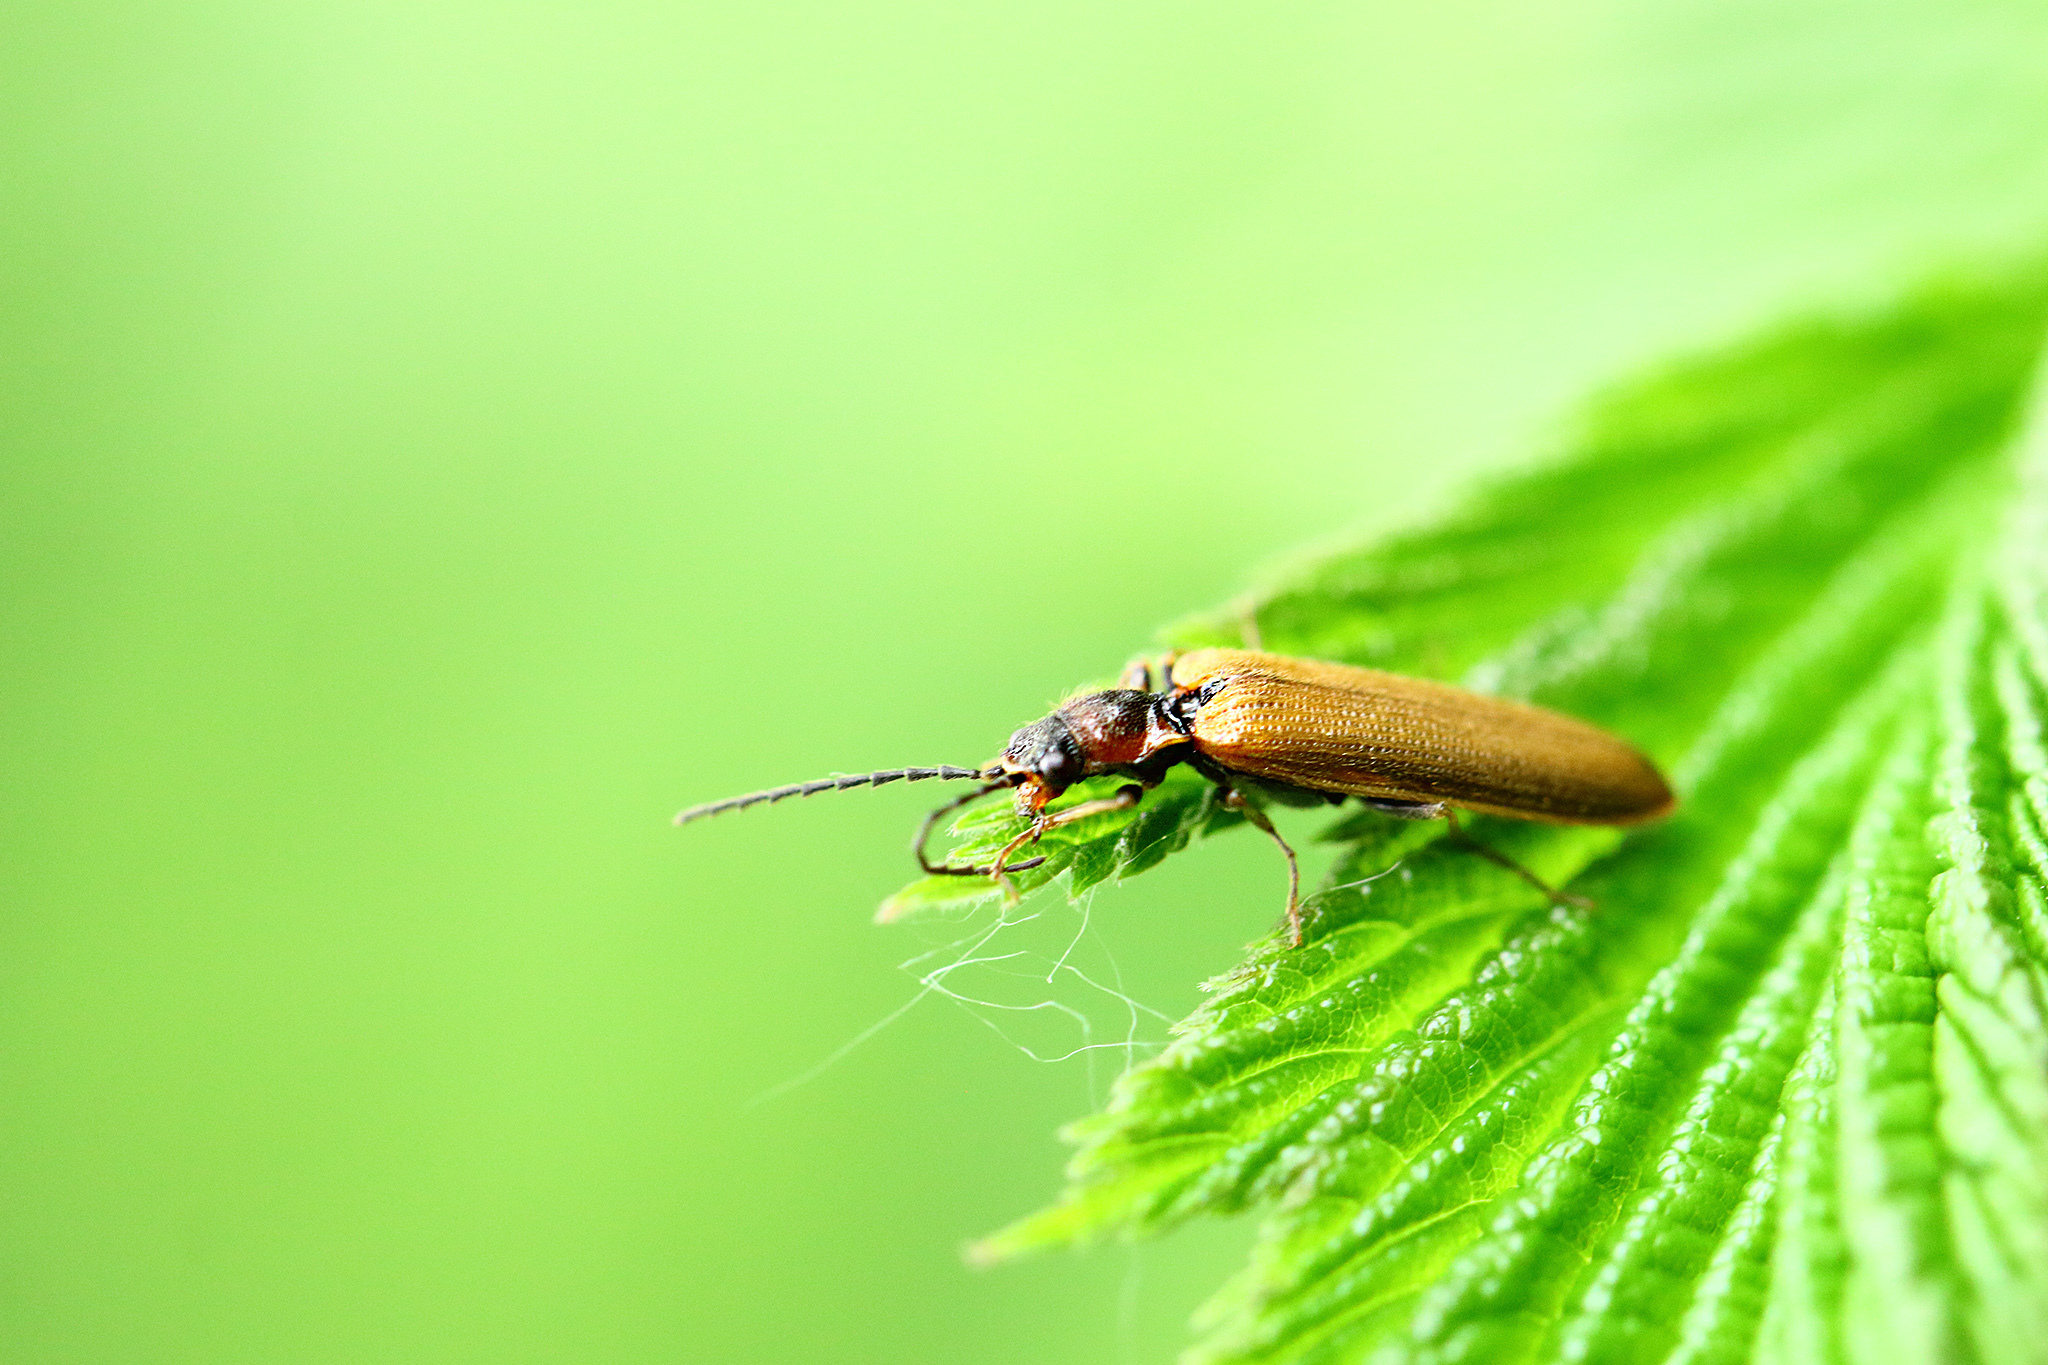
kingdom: Animalia
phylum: Arthropoda
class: Insecta
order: Coleoptera
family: Elateridae
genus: Denticollis
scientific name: Denticollis linearis
